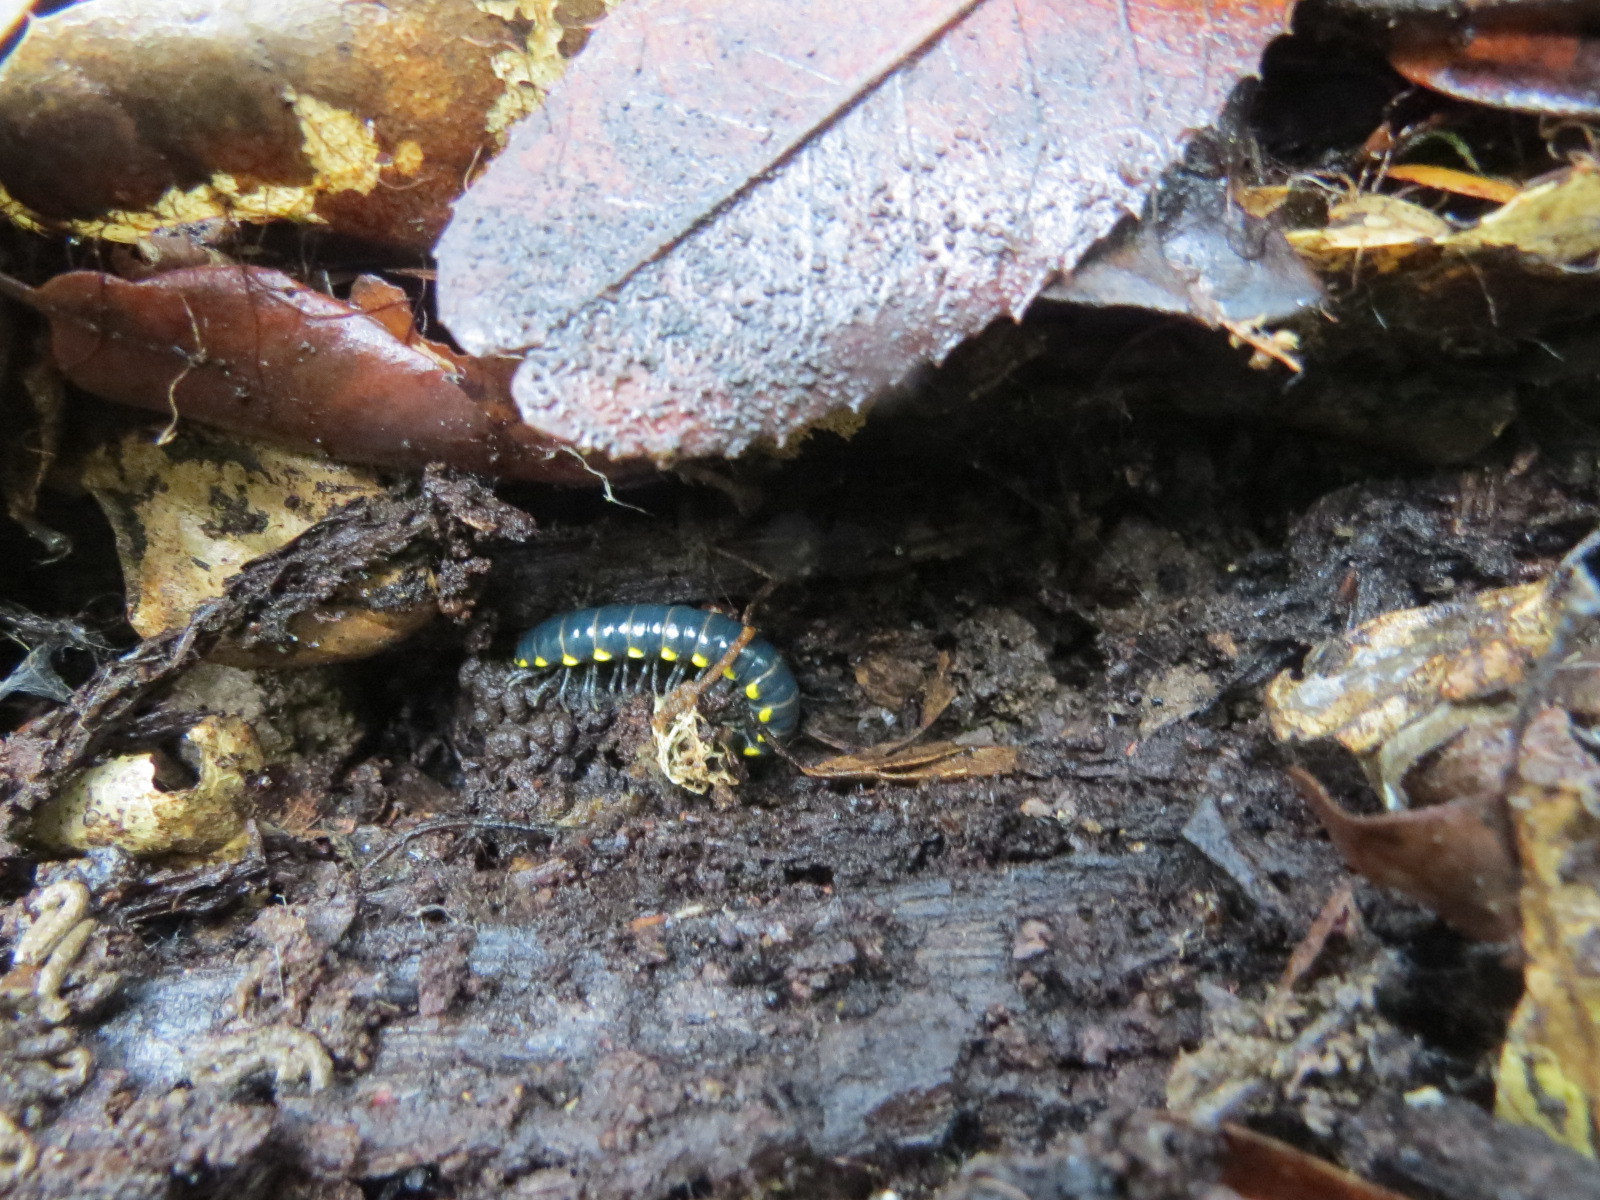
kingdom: Animalia
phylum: Arthropoda
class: Diplopoda
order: Polydesmida
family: Xystodesmidae
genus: Harpaphe
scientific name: Harpaphe haydeniana
